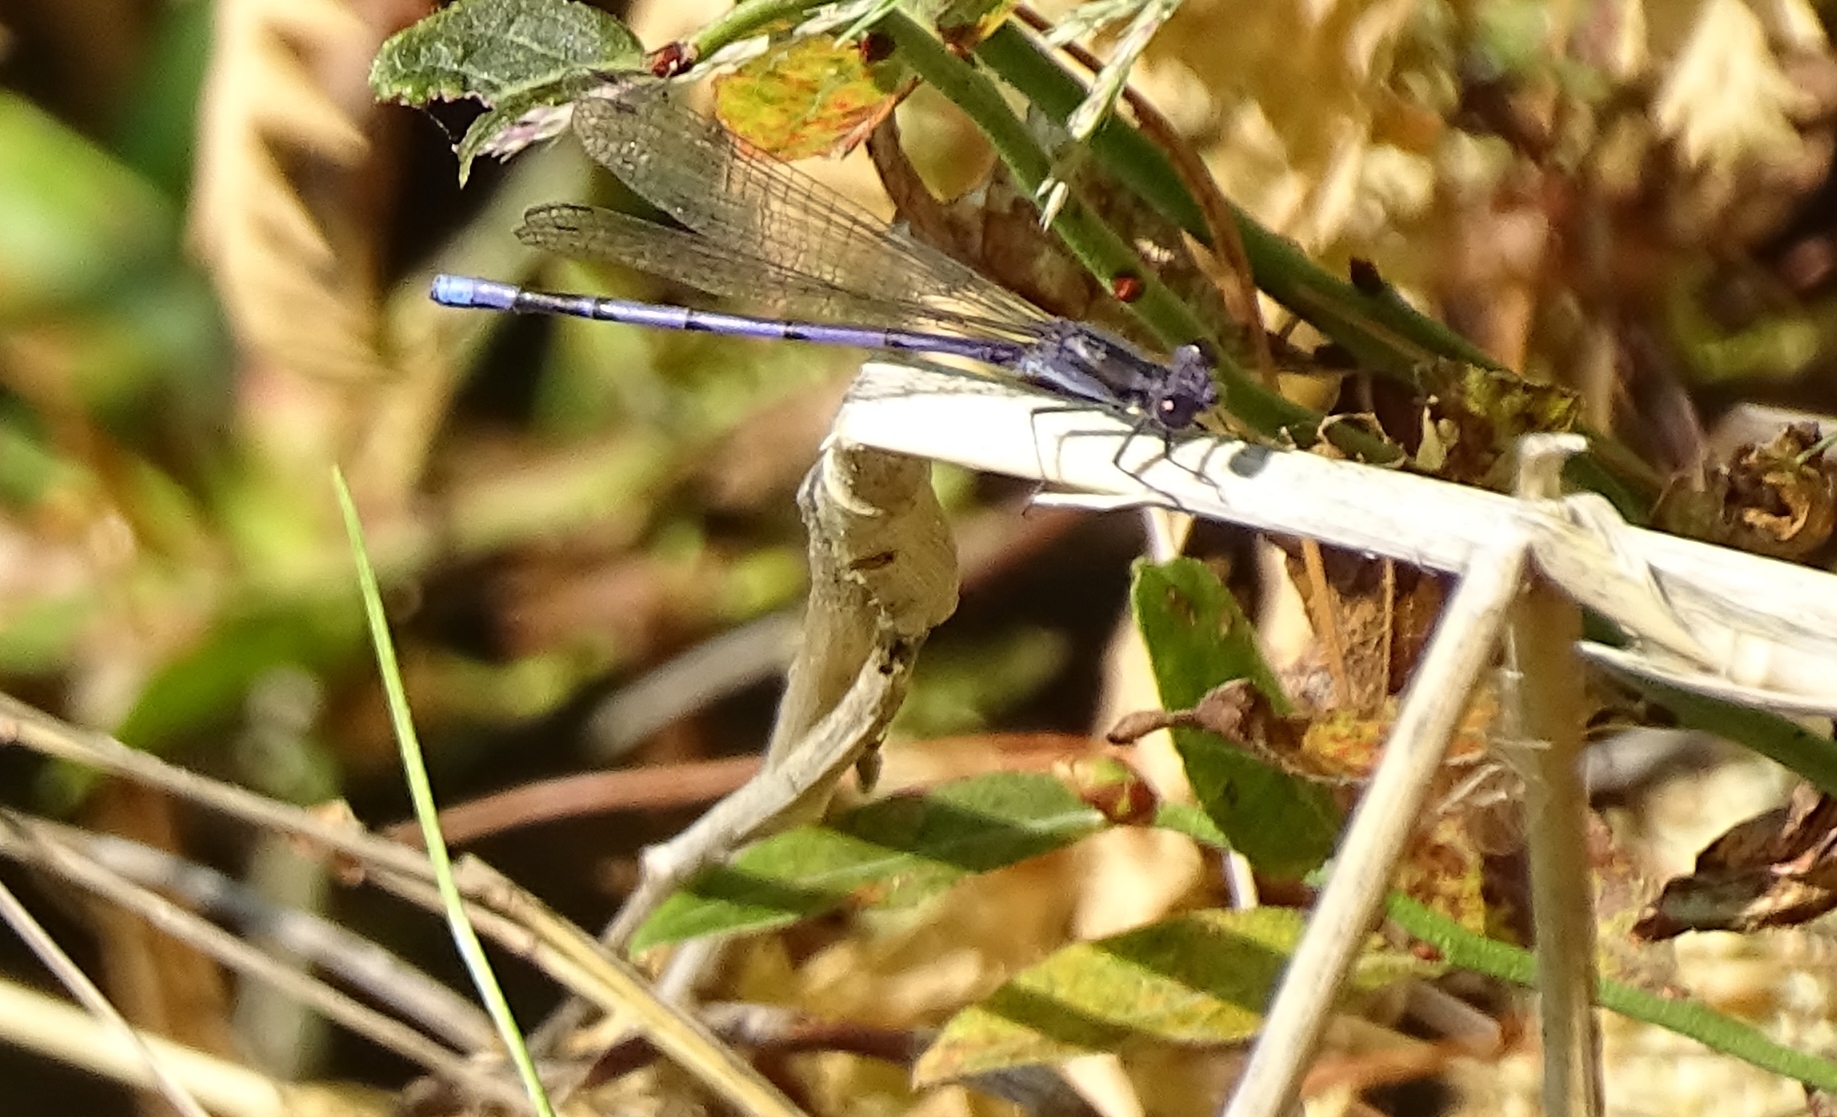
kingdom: Animalia
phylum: Arthropoda
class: Insecta
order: Odonata
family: Coenagrionidae
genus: Argia
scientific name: Argia fumipennis
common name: Variable dancer
